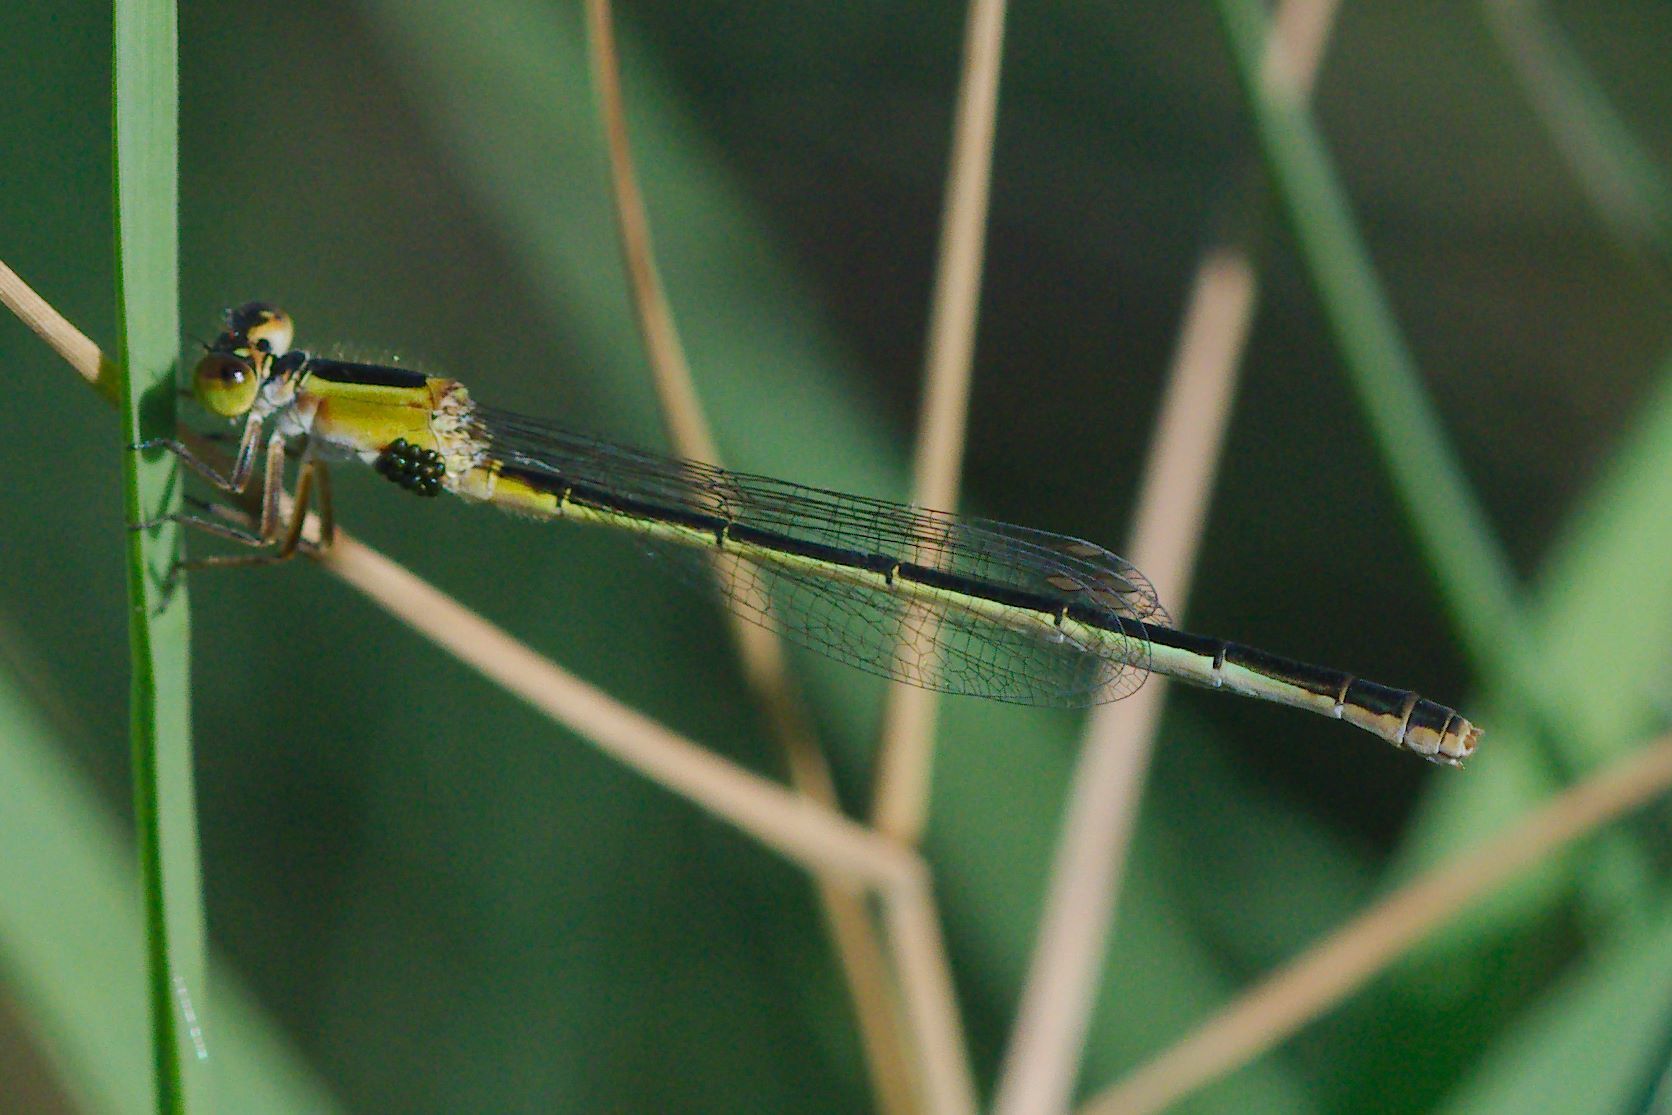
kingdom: Animalia
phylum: Arthropoda
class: Insecta
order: Odonata
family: Coenagrionidae
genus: Ischnura
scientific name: Ischnura ramburii
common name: Rambur's forktail
